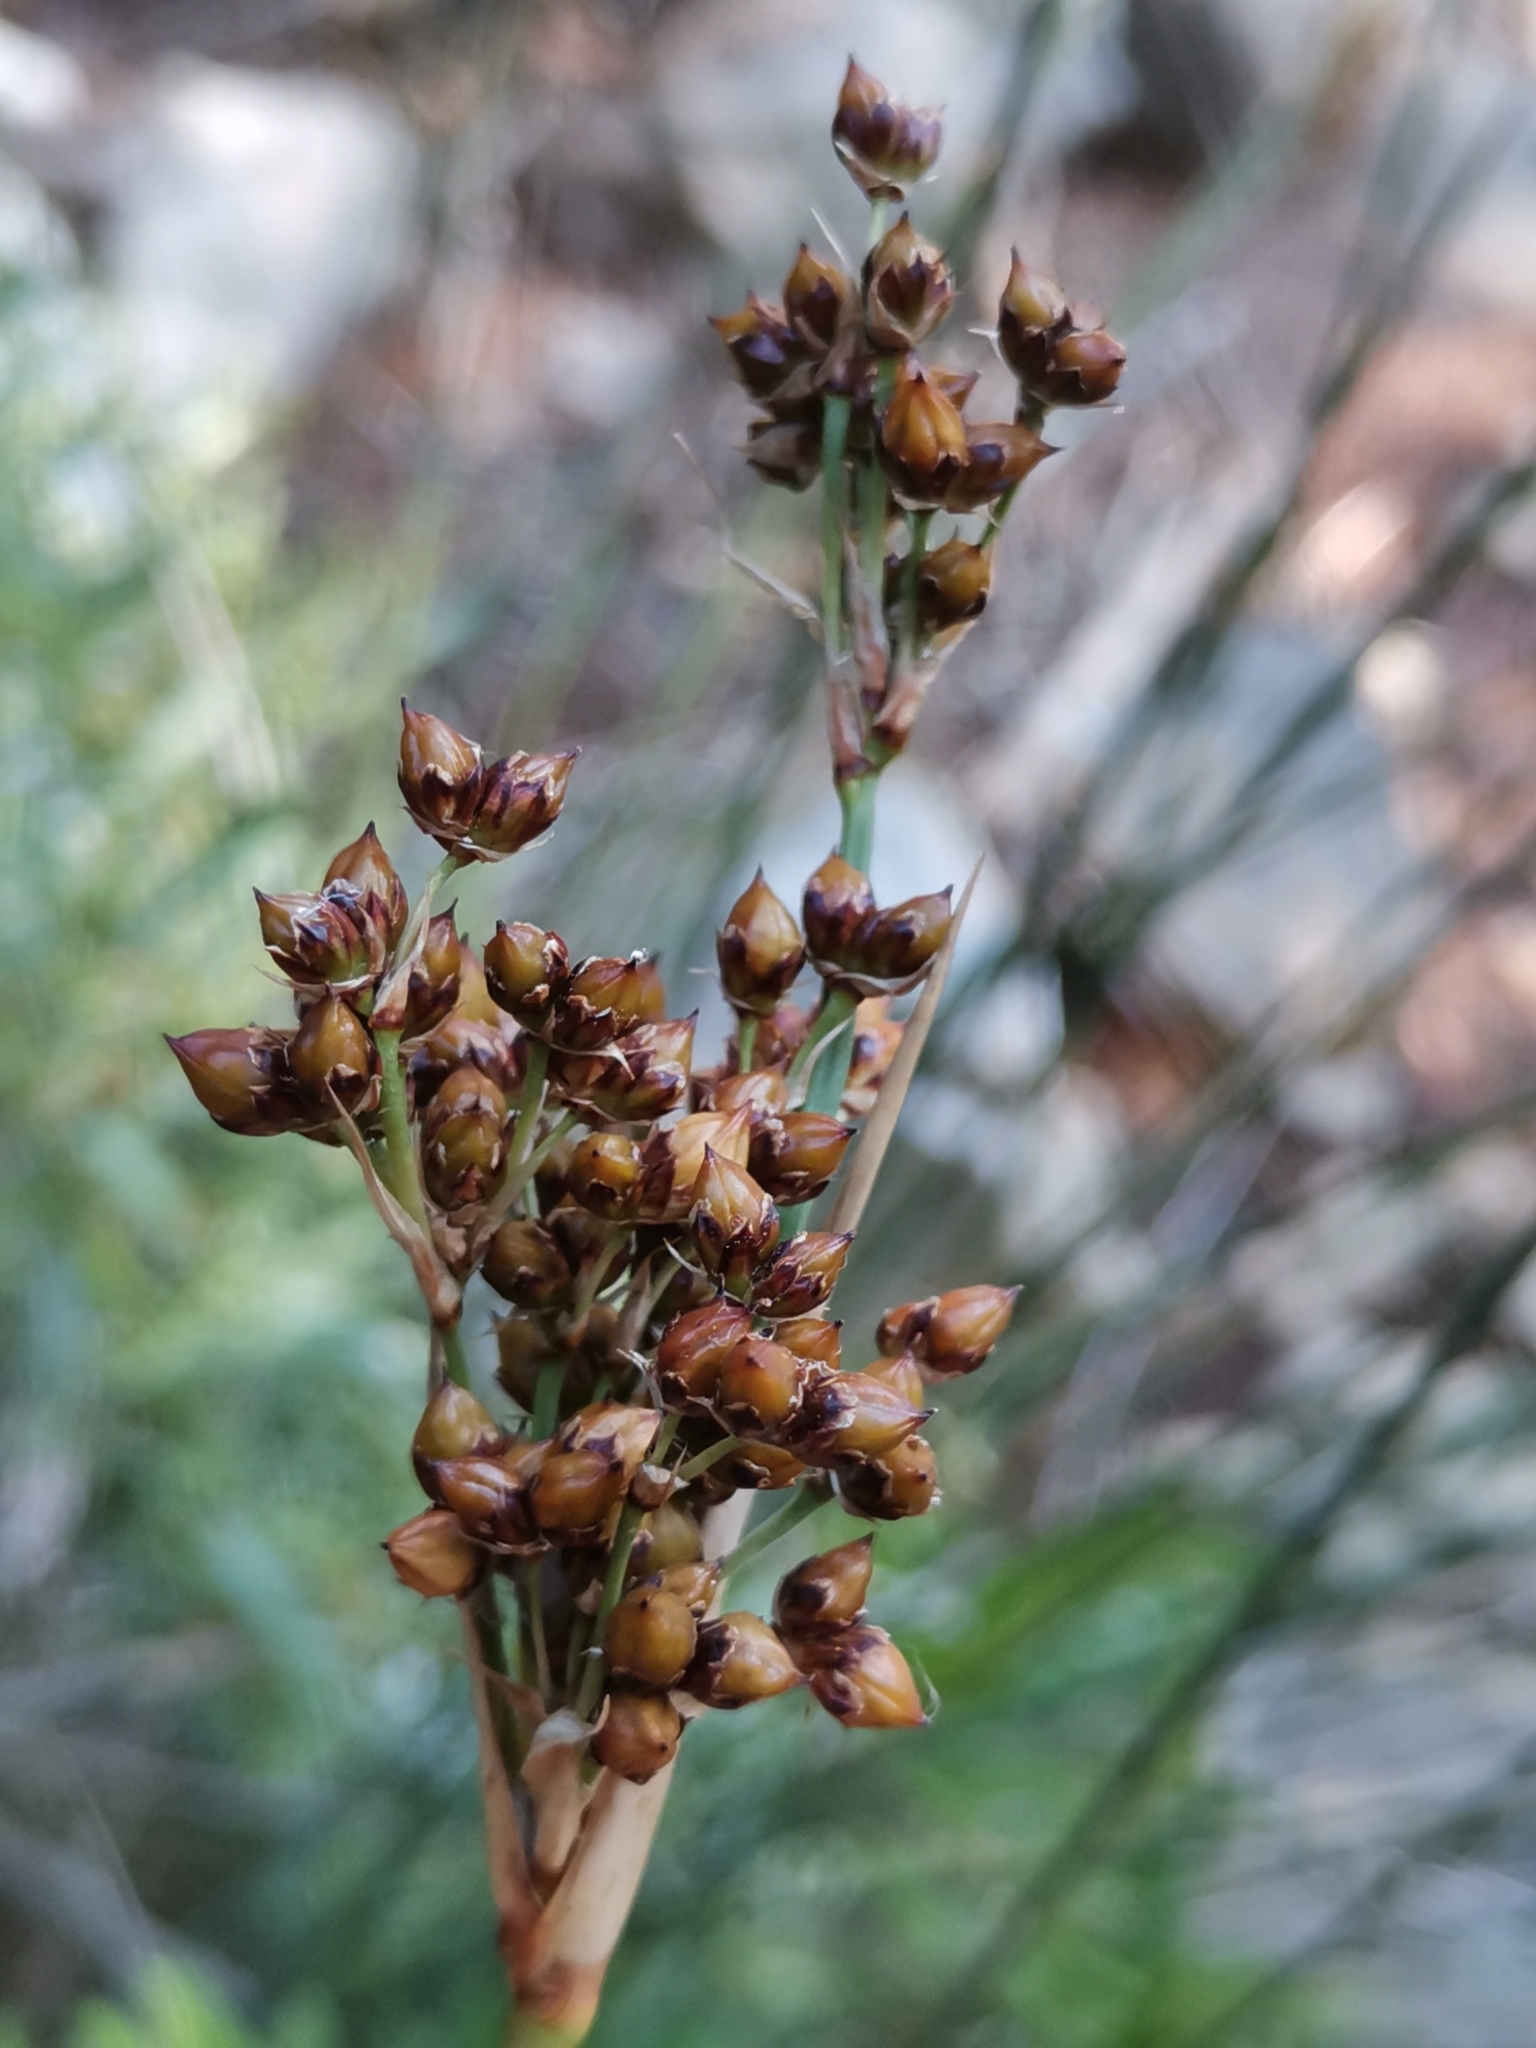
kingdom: Plantae
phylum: Tracheophyta
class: Liliopsida
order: Poales
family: Juncaceae
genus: Juncus
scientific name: Juncus acutus
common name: Sharp rush
